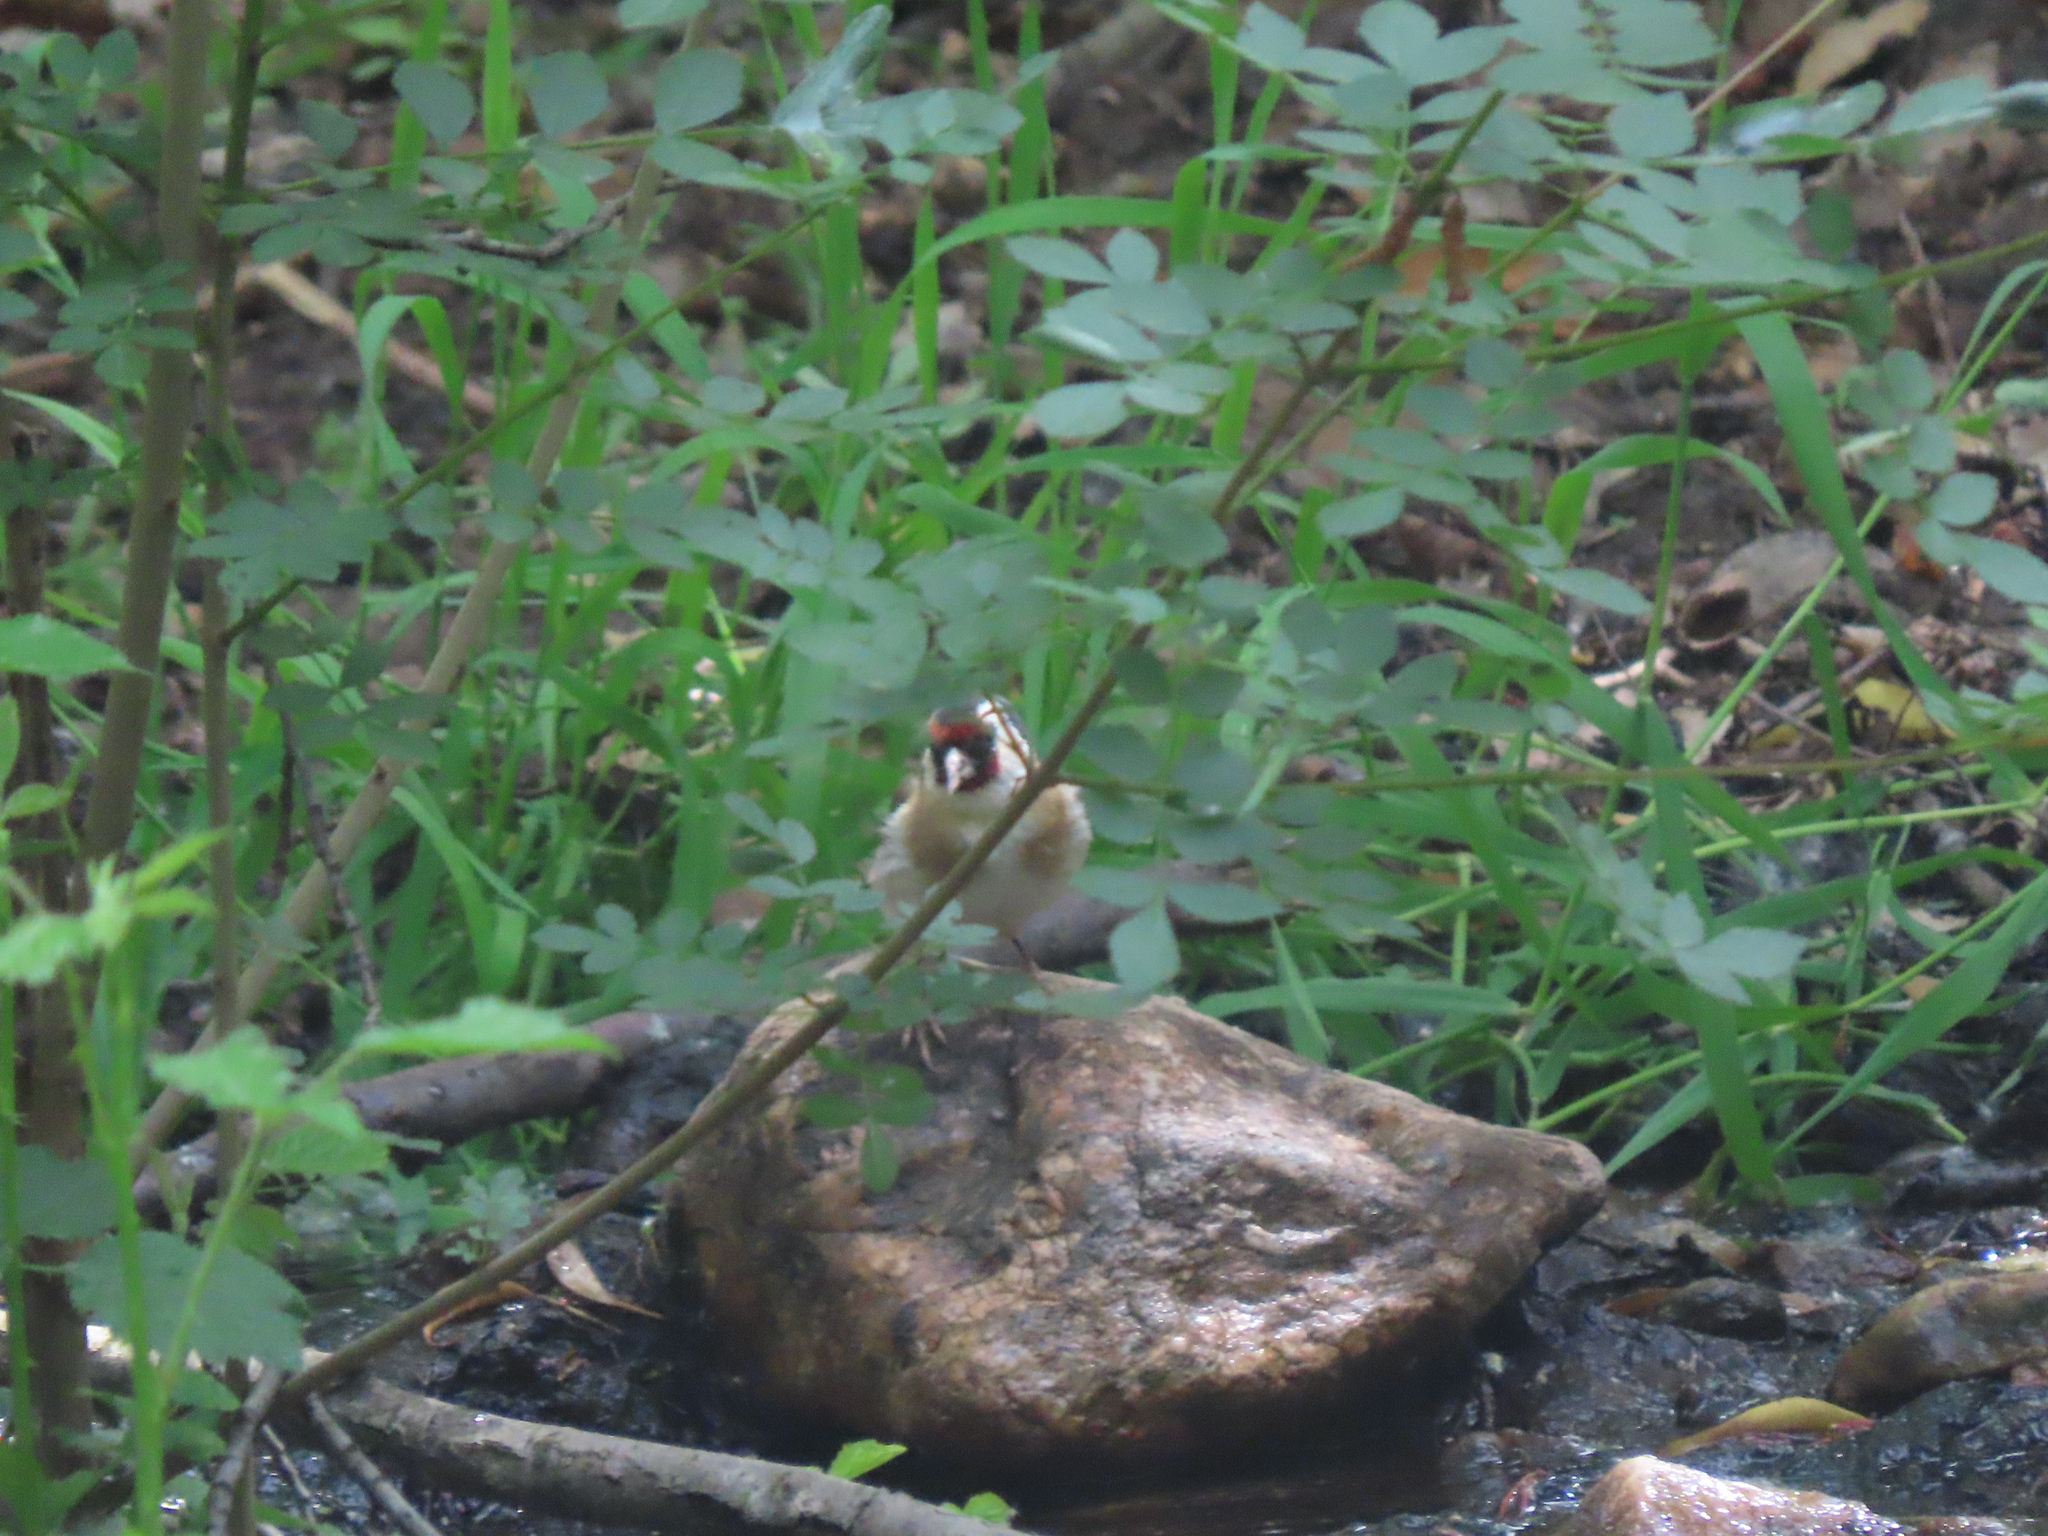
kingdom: Animalia
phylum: Chordata
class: Aves
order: Passeriformes
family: Fringillidae
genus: Carduelis
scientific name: Carduelis carduelis
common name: European goldfinch
